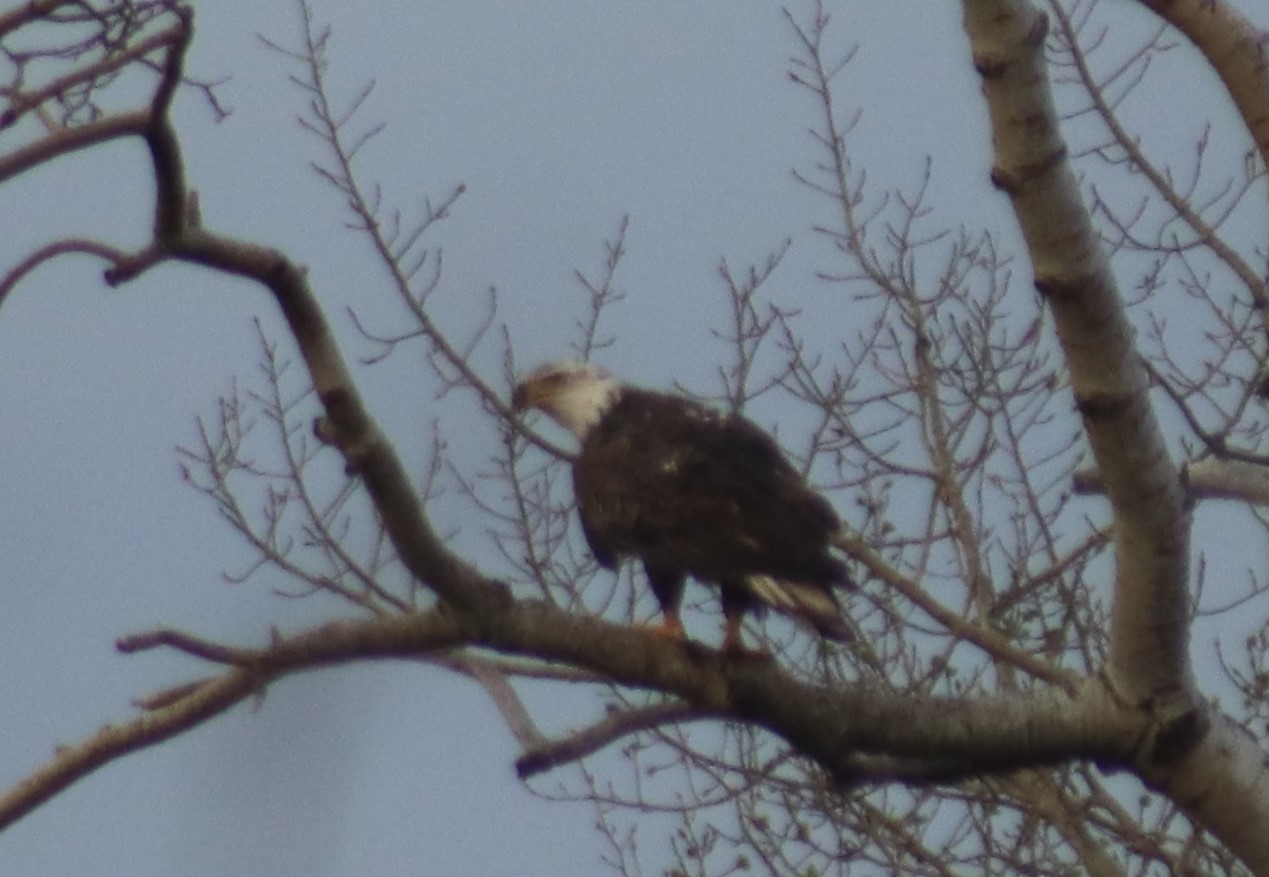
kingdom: Animalia
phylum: Chordata
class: Aves
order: Accipitriformes
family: Accipitridae
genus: Haliaeetus
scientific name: Haliaeetus leucocephalus
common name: Bald eagle
